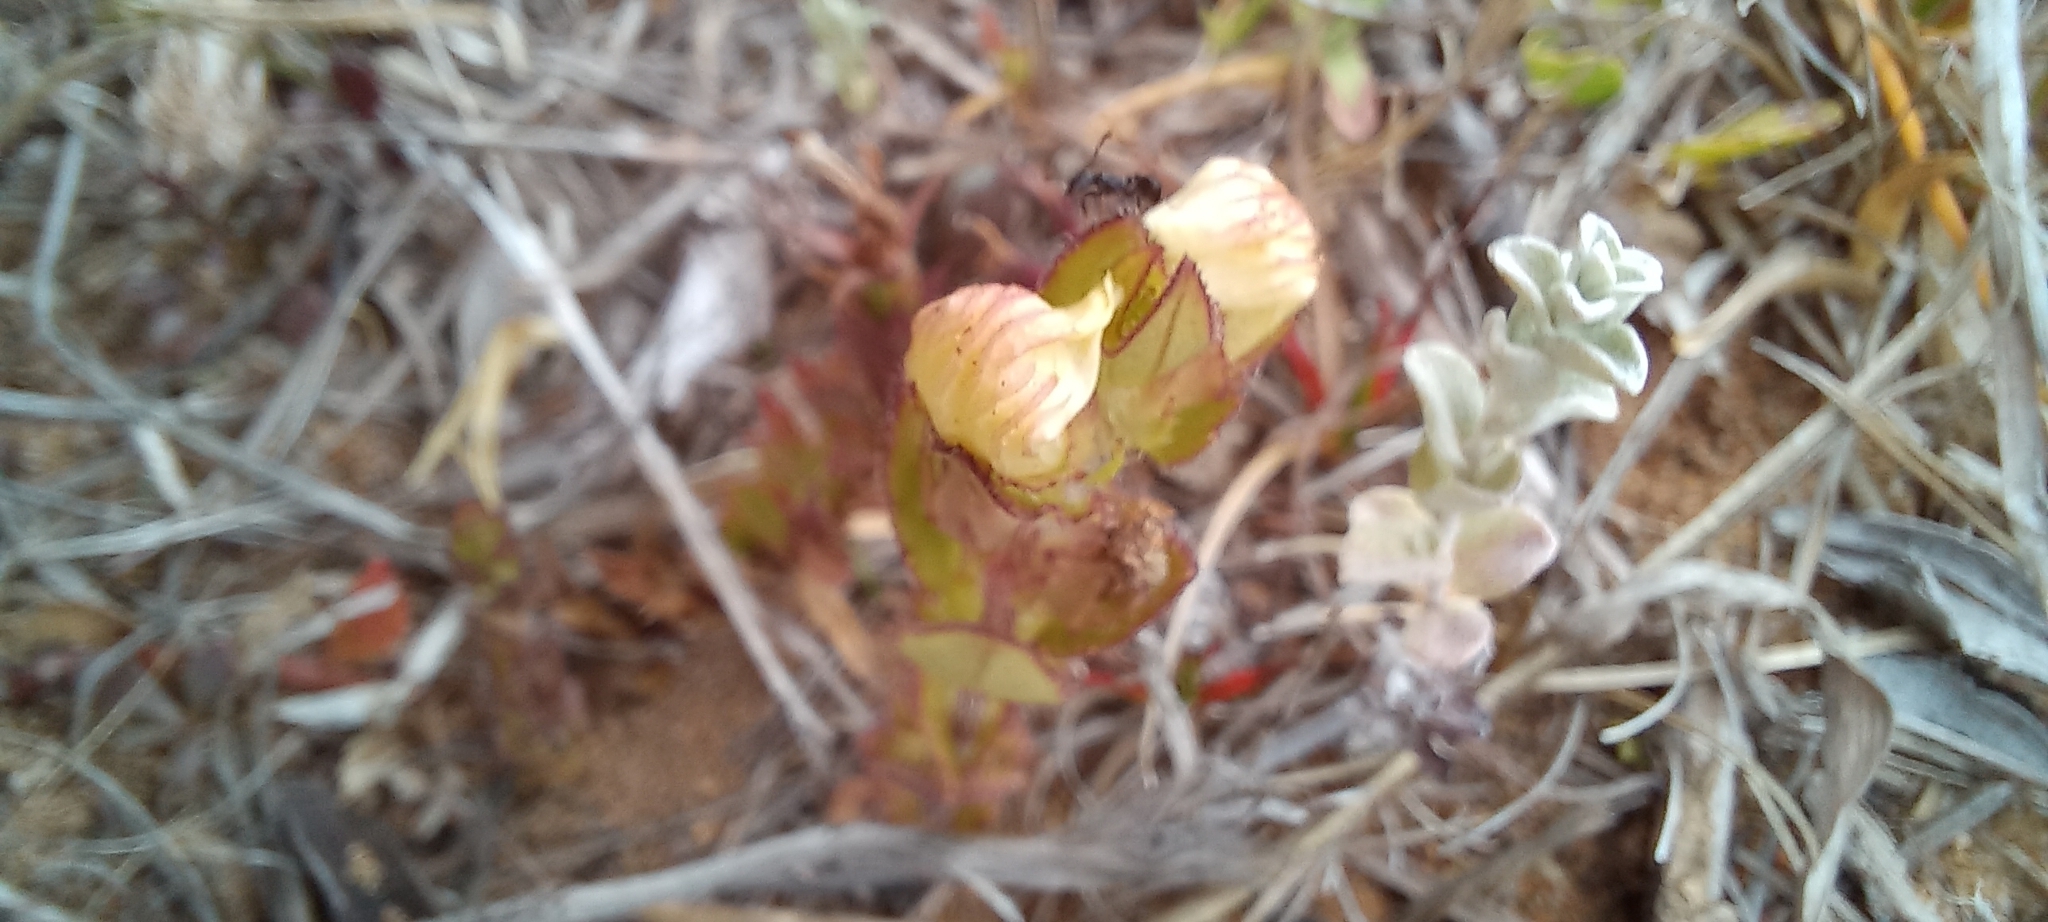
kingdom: Plantae
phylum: Tracheophyta
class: Magnoliopsida
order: Lamiales
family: Orobanchaceae
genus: Alectra
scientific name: Alectra sessiliflora
